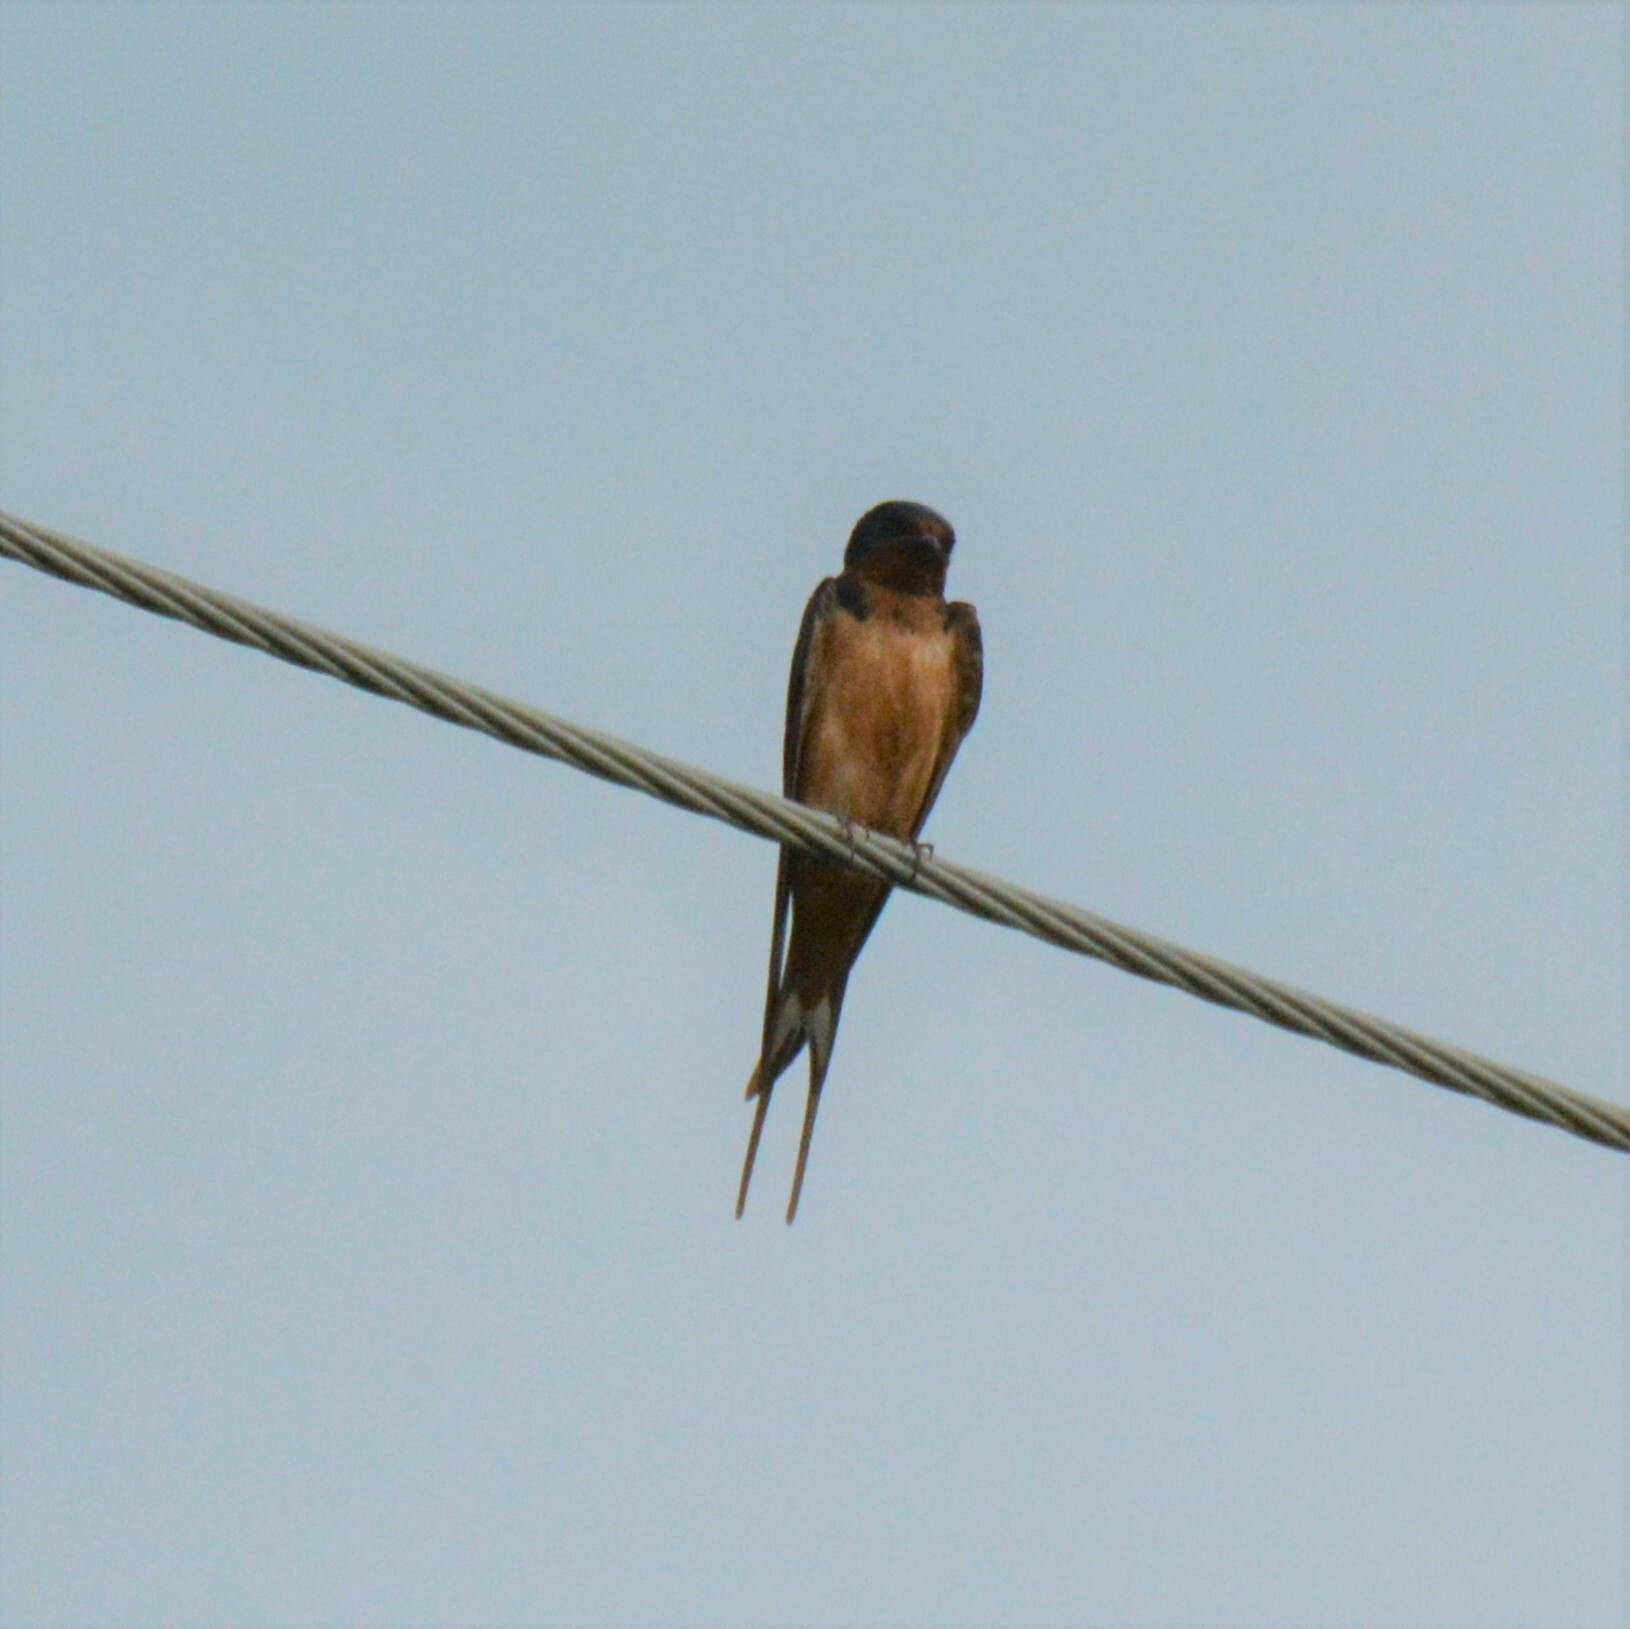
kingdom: Animalia
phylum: Chordata
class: Aves
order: Passeriformes
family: Hirundinidae
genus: Hirundo
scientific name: Hirundo rustica
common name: Barn swallow
